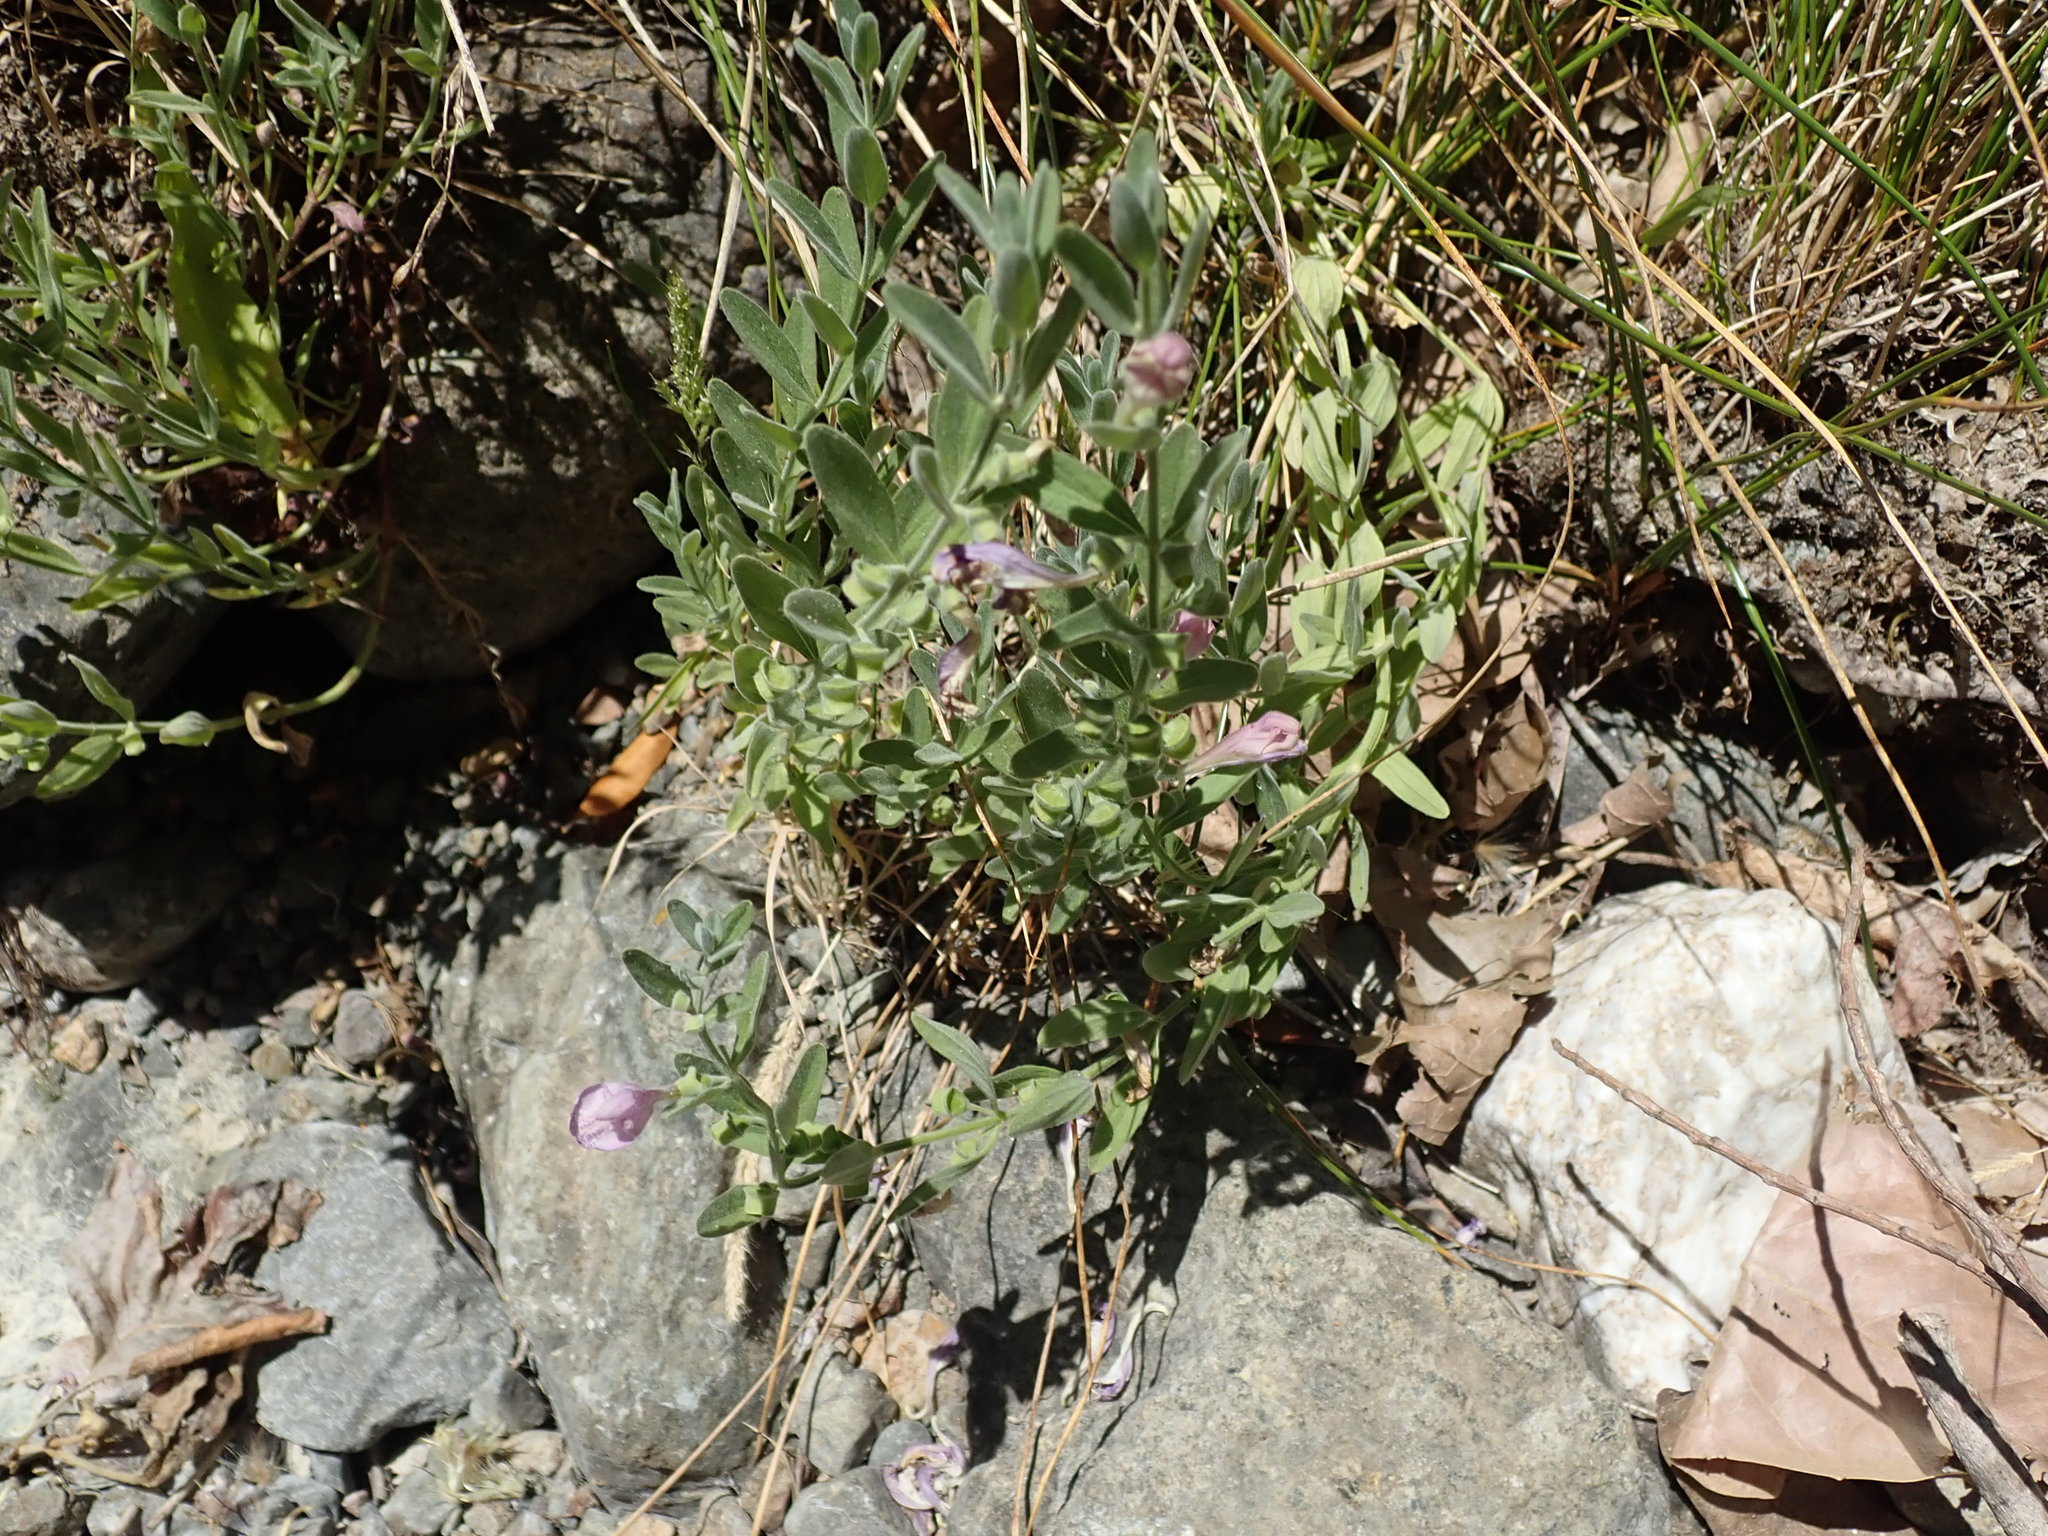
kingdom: Plantae
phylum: Tracheophyta
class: Magnoliopsida
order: Lamiales
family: Lamiaceae
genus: Scutellaria
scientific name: Scutellaria siphocampyloides
